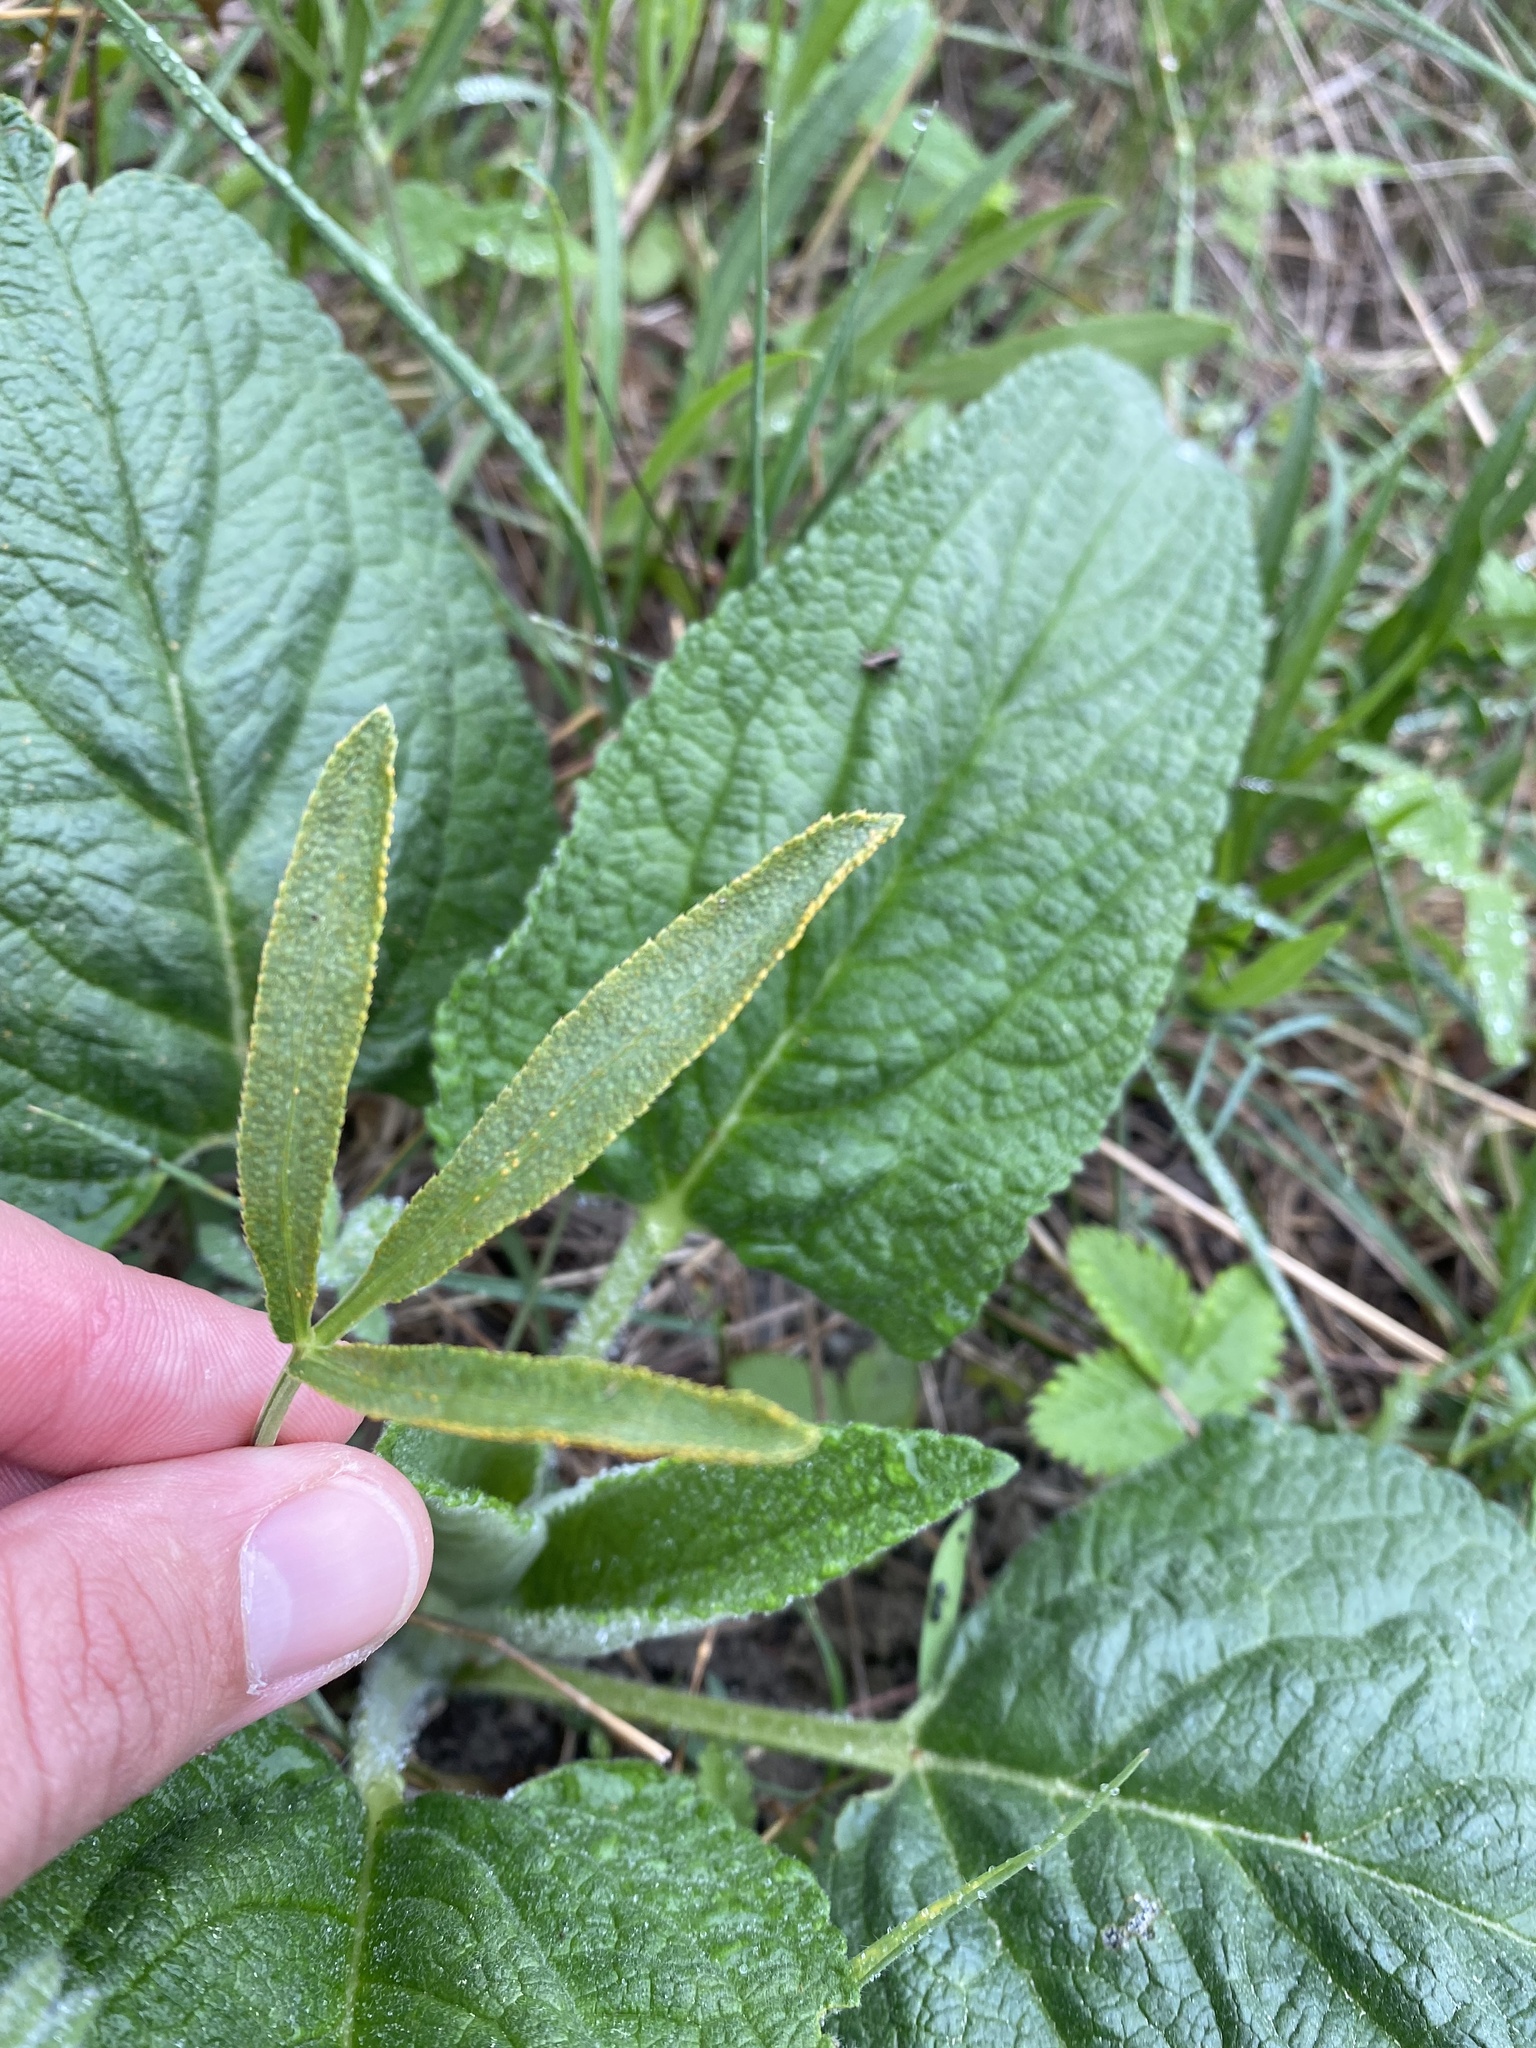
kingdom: Plantae
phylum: Tracheophyta
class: Magnoliopsida
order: Apiales
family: Apiaceae
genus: Falcaria
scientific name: Falcaria vulgaris
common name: Longleaf
